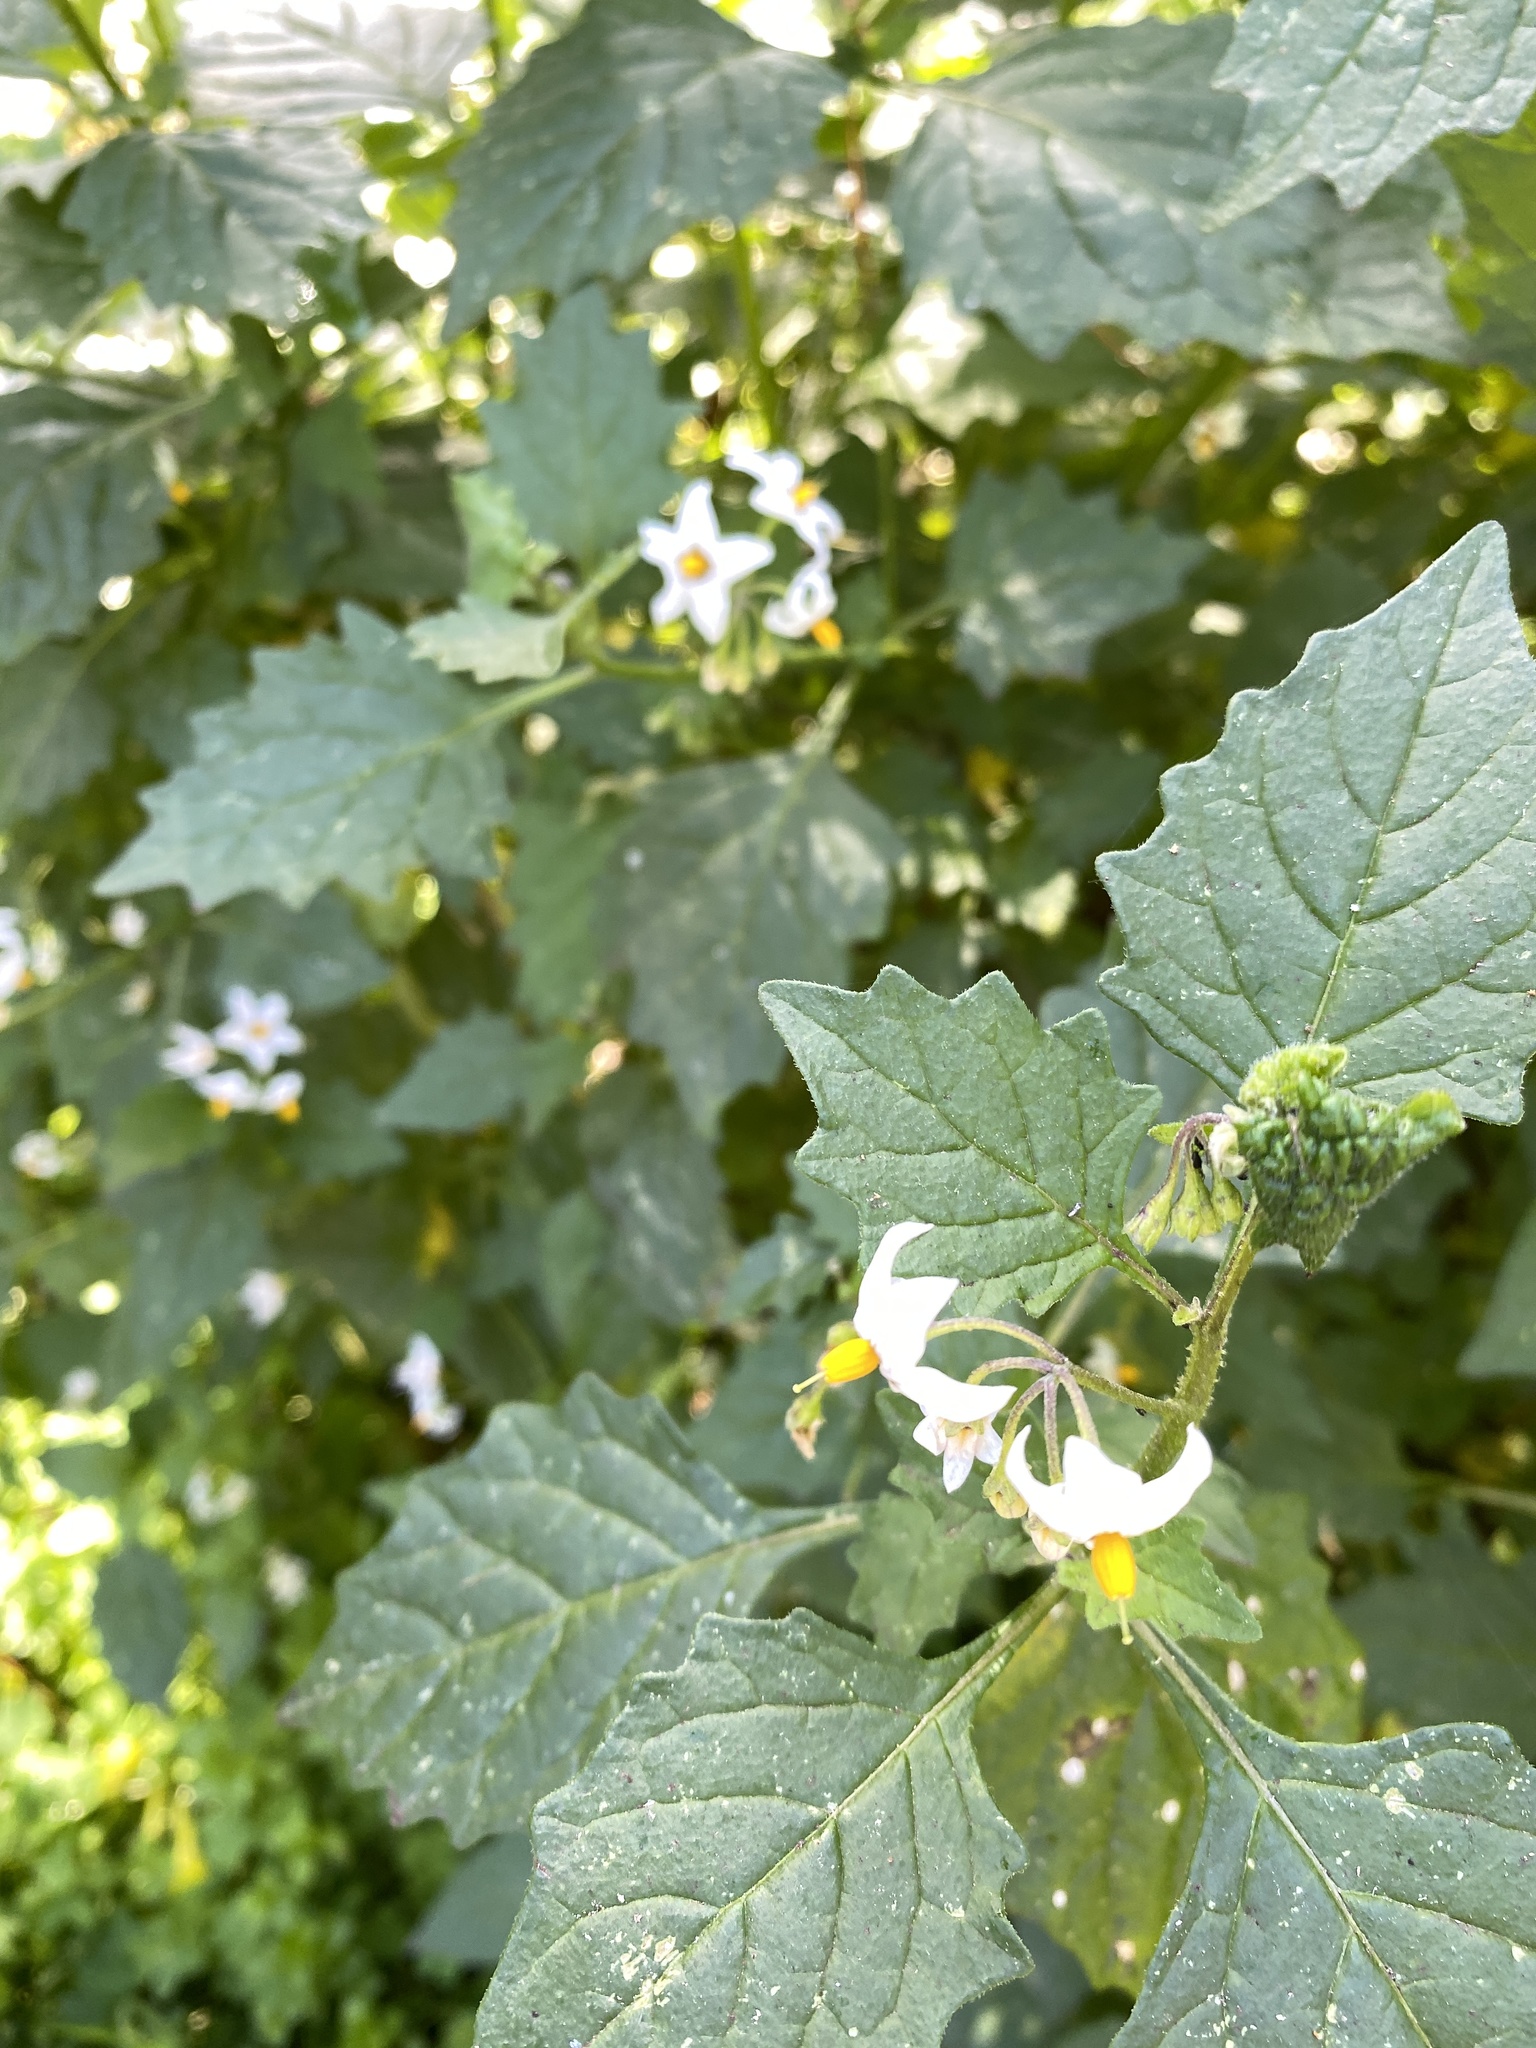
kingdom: Plantae
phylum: Tracheophyta
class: Magnoliopsida
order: Solanales
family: Solanaceae
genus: Solanum
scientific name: Solanum douglasii
